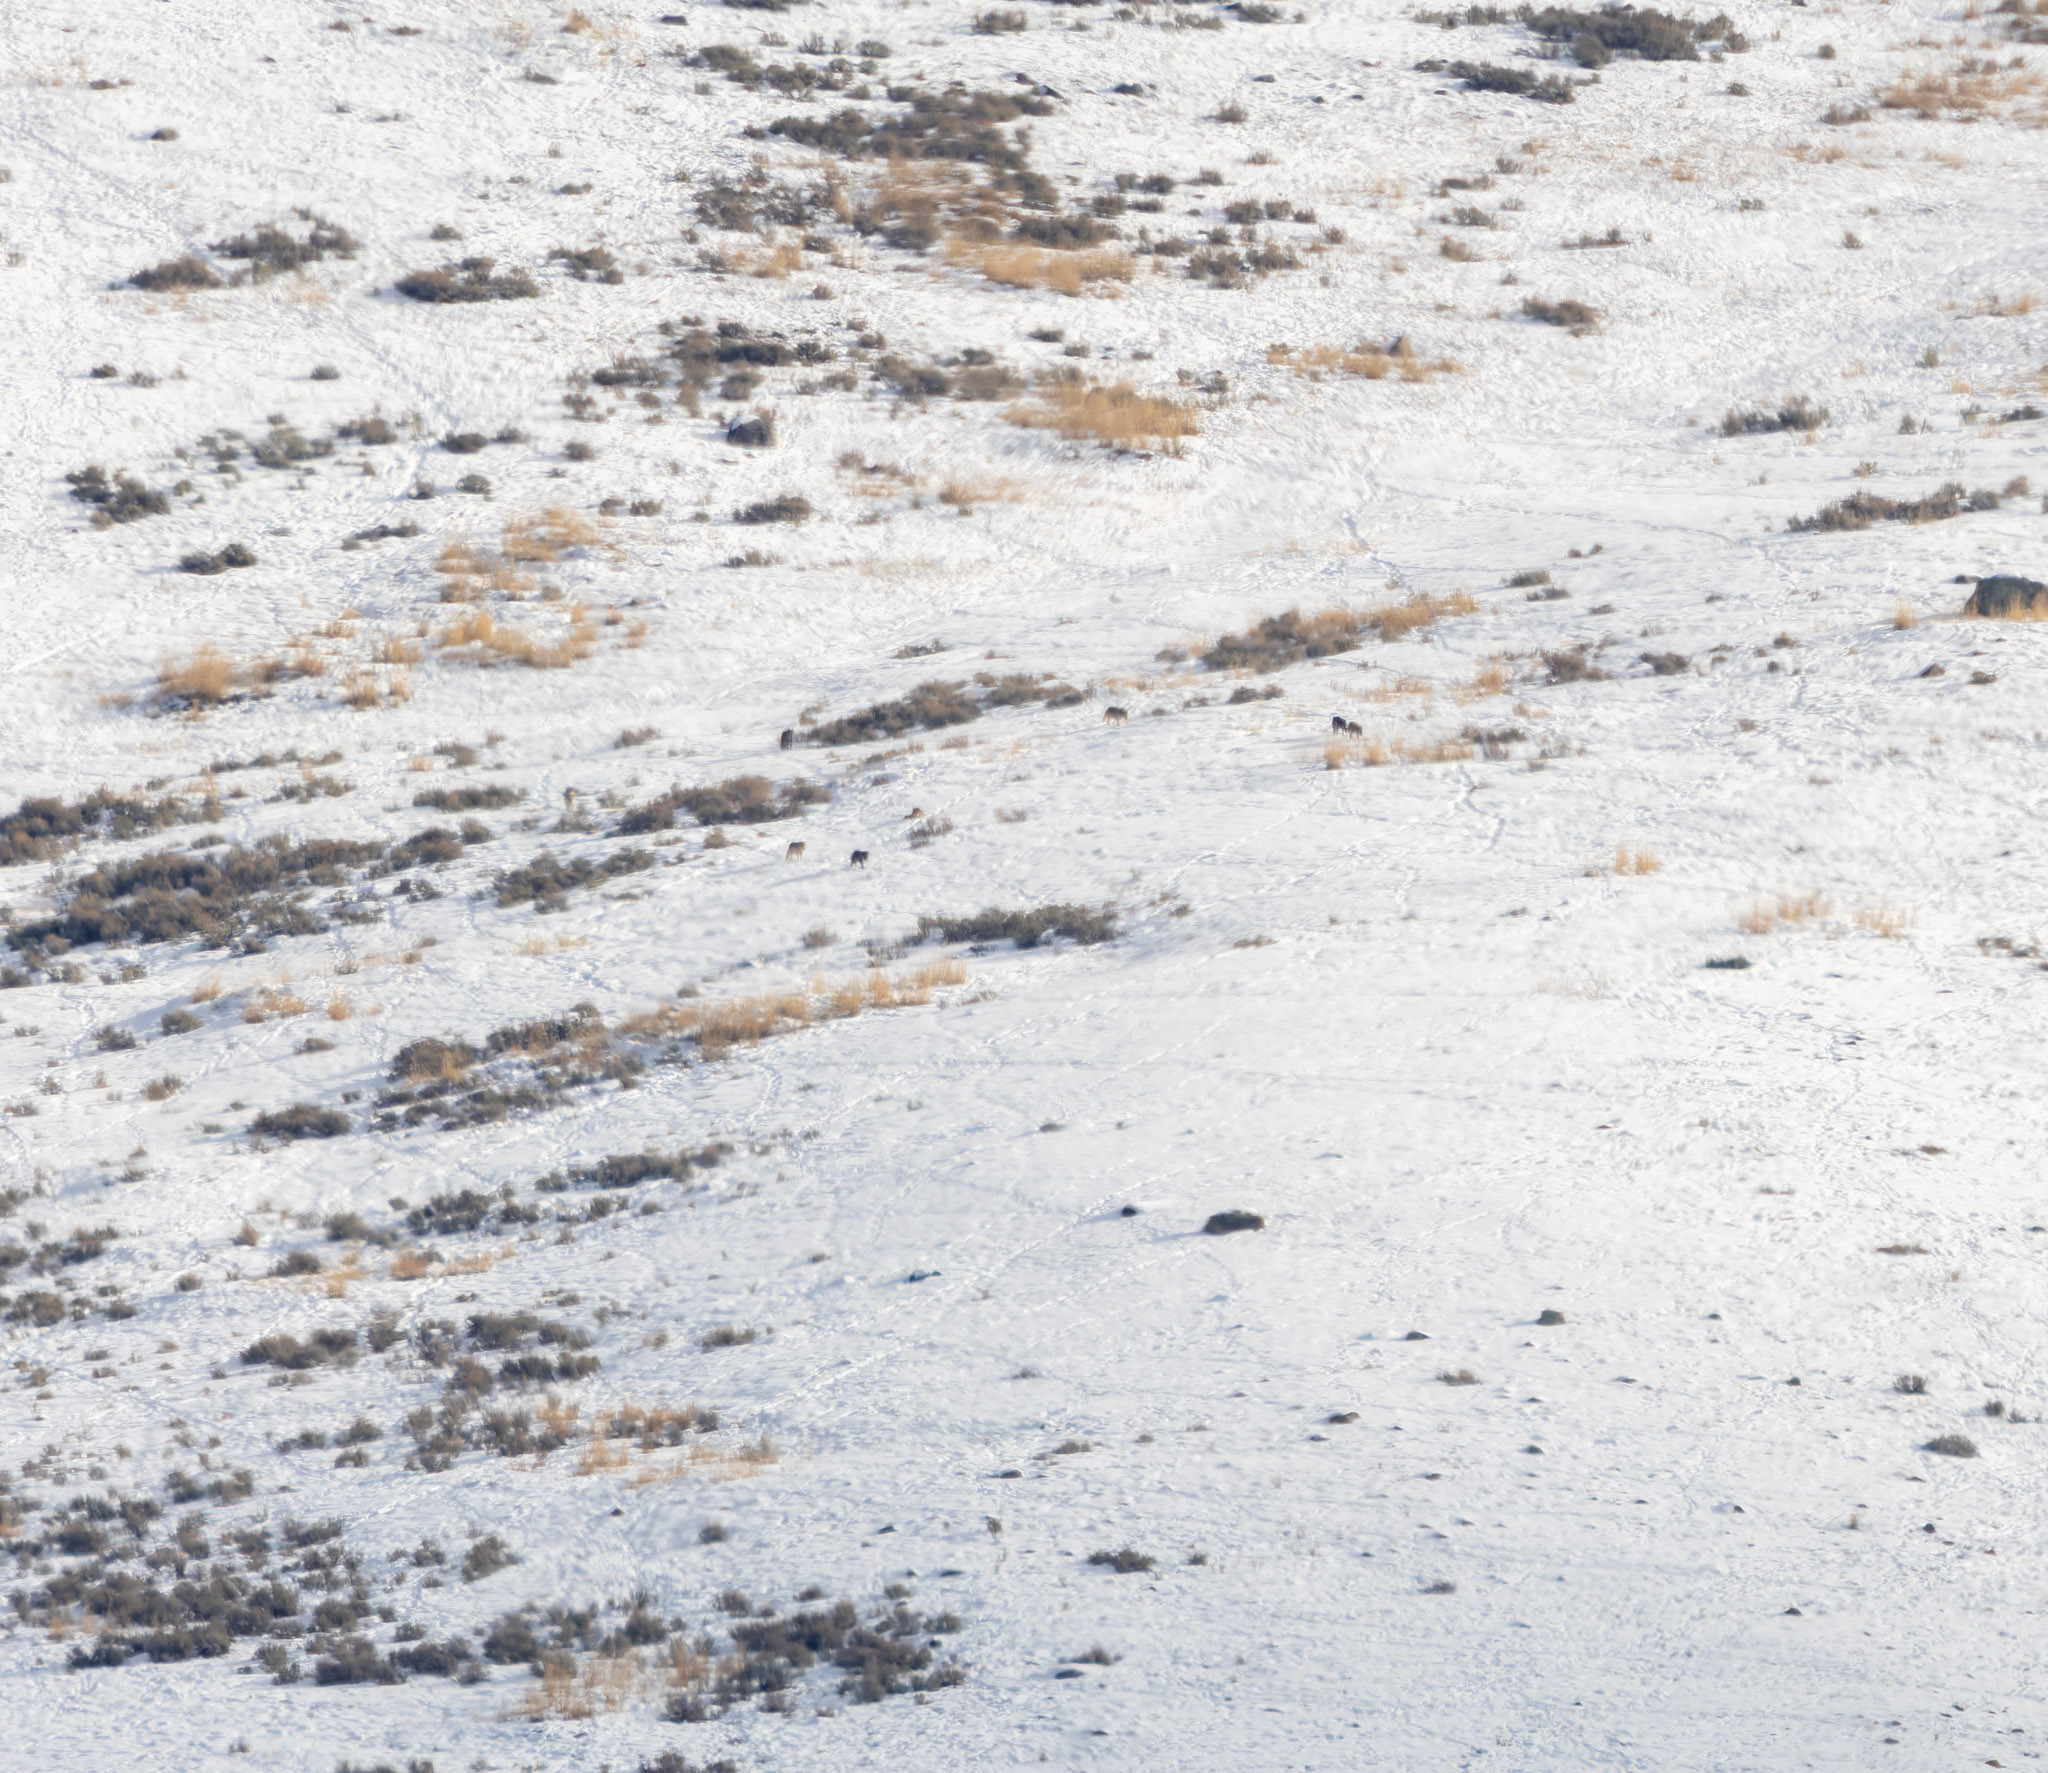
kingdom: Animalia
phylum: Chordata
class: Mammalia
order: Carnivora
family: Canidae
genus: Canis
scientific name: Canis lupus
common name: Gray wolf
